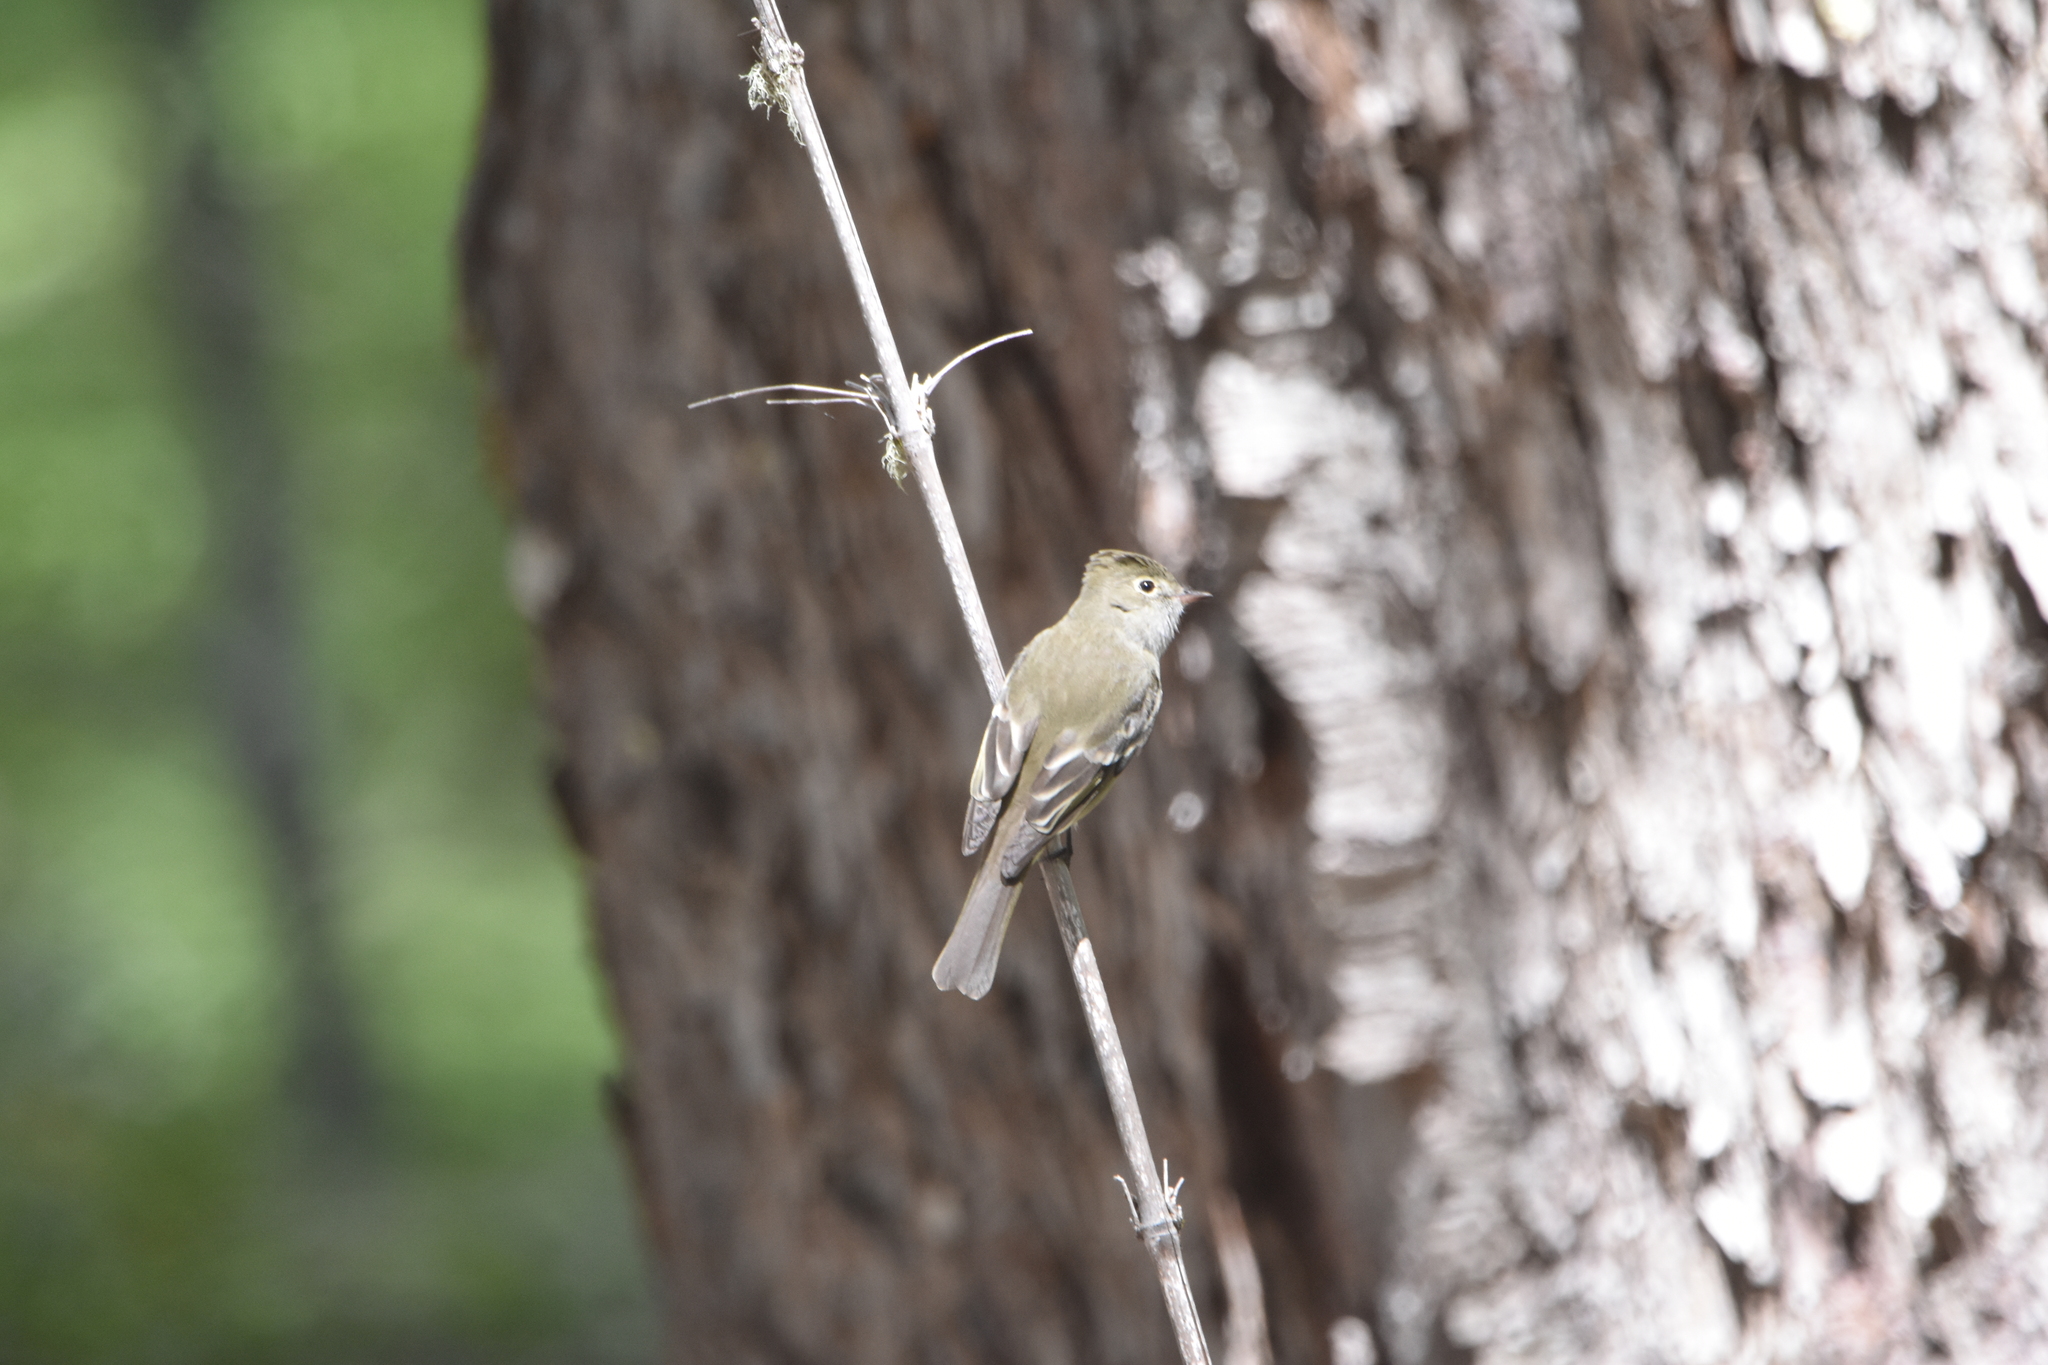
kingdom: Animalia
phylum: Chordata
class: Aves
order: Passeriformes
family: Tyrannidae
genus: Elaenia
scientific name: Elaenia albiceps
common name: White-crested elaenia
